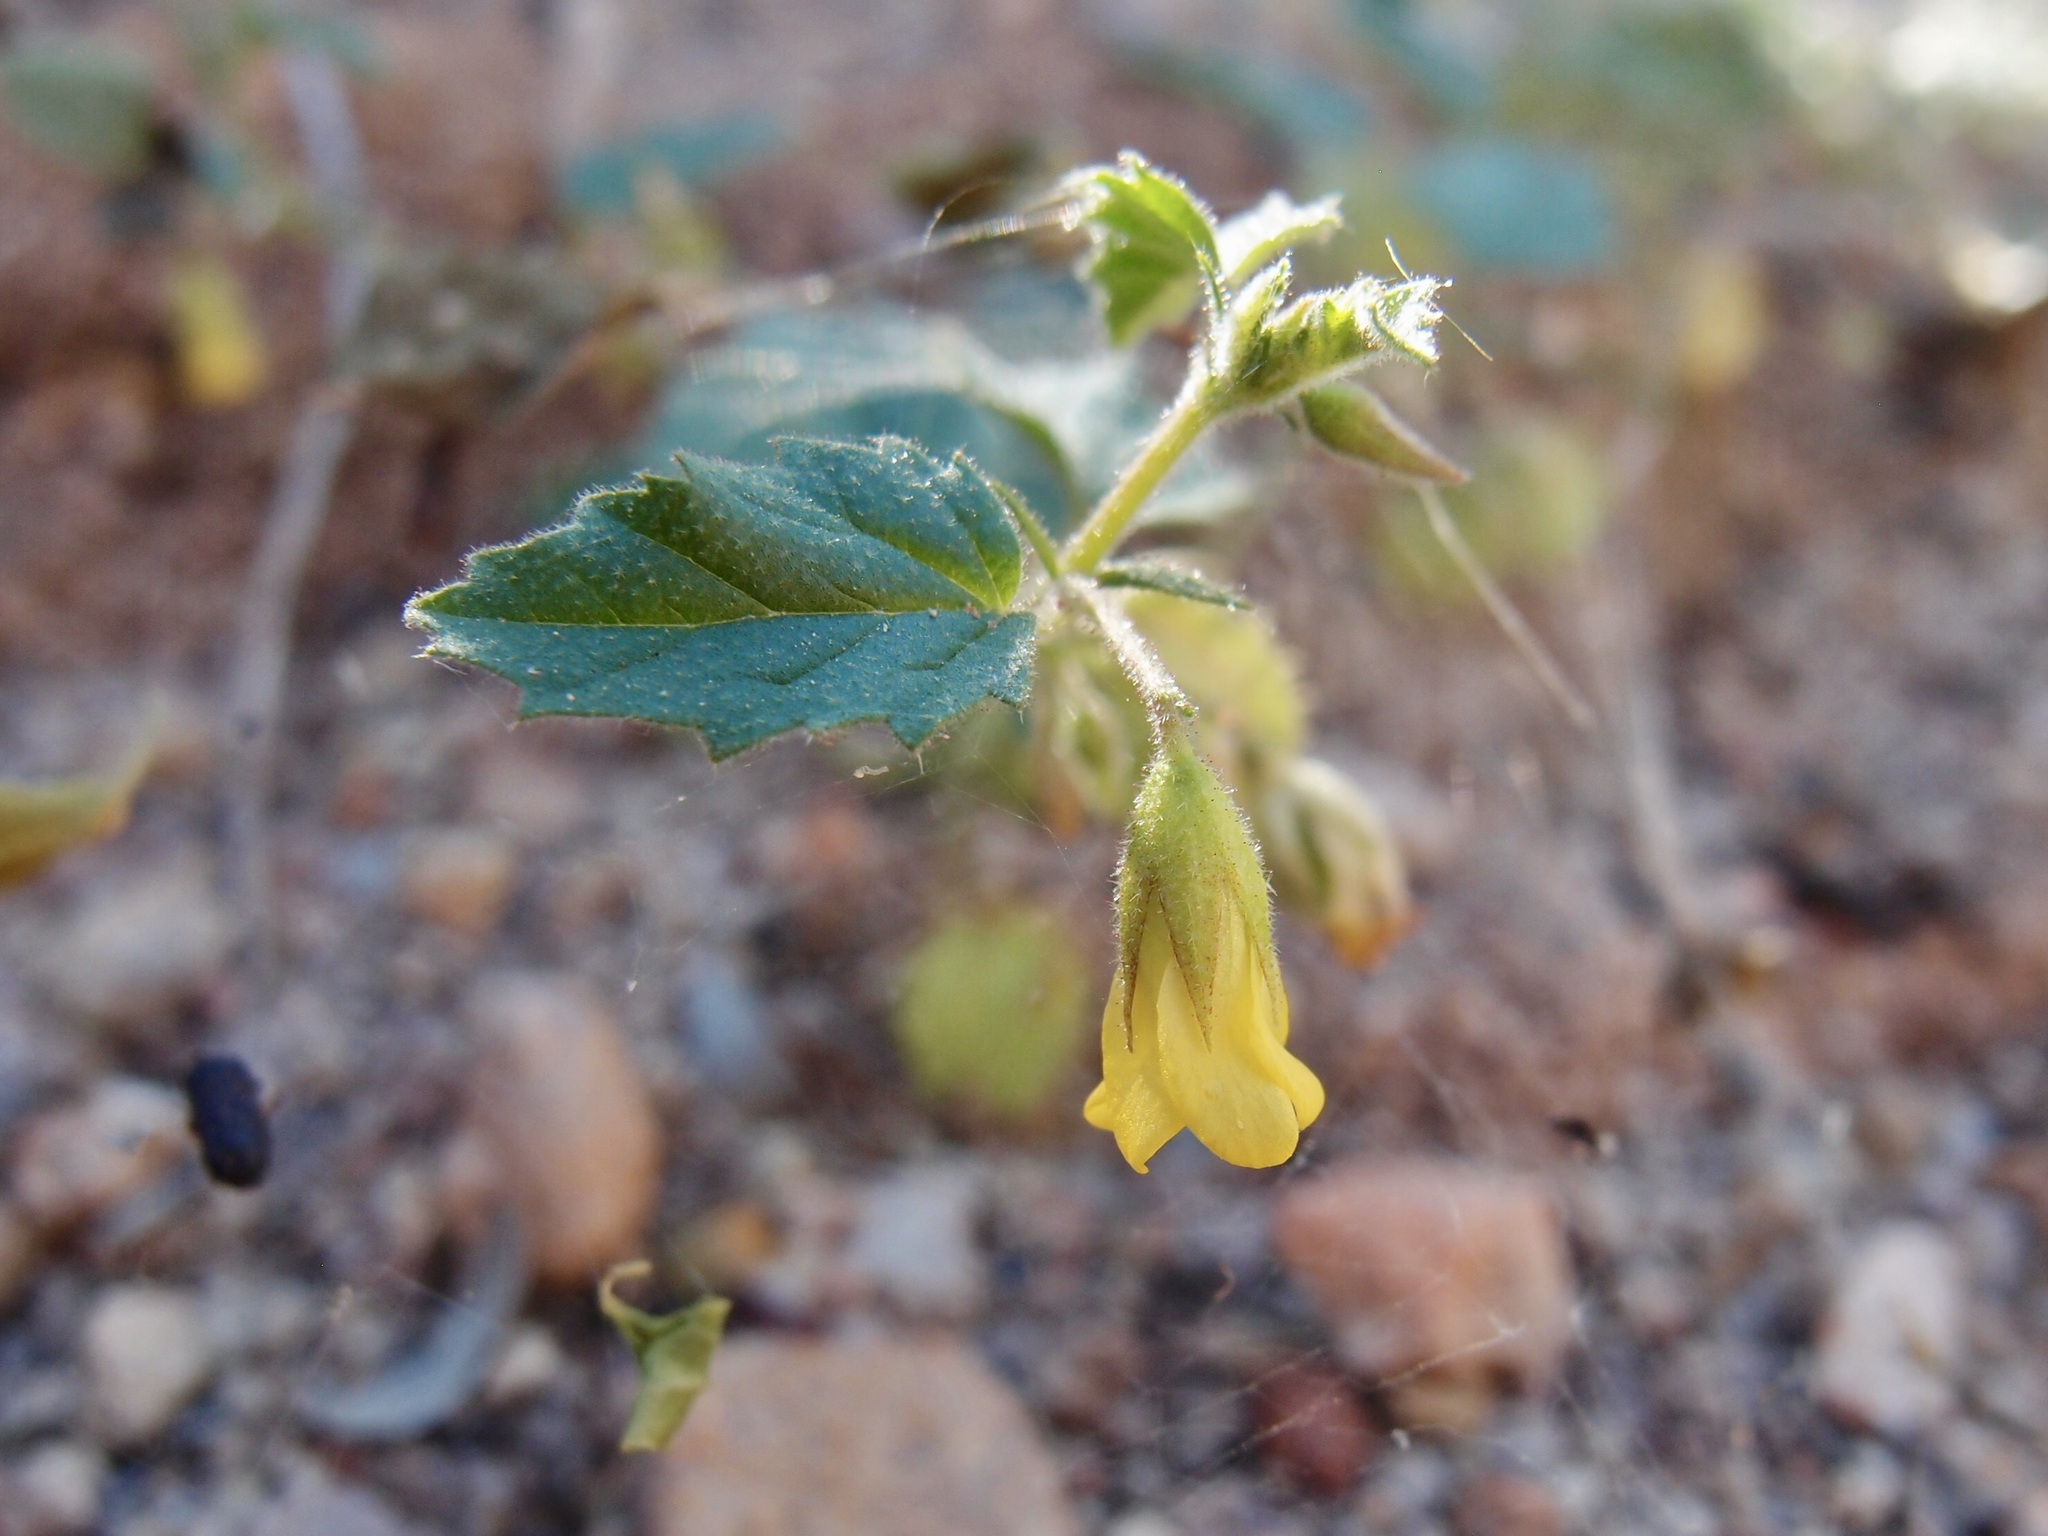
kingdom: Plantae
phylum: Tracheophyta
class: Magnoliopsida
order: Malvales
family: Malvaceae
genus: Hermannia
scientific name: Hermannia pauciflora
